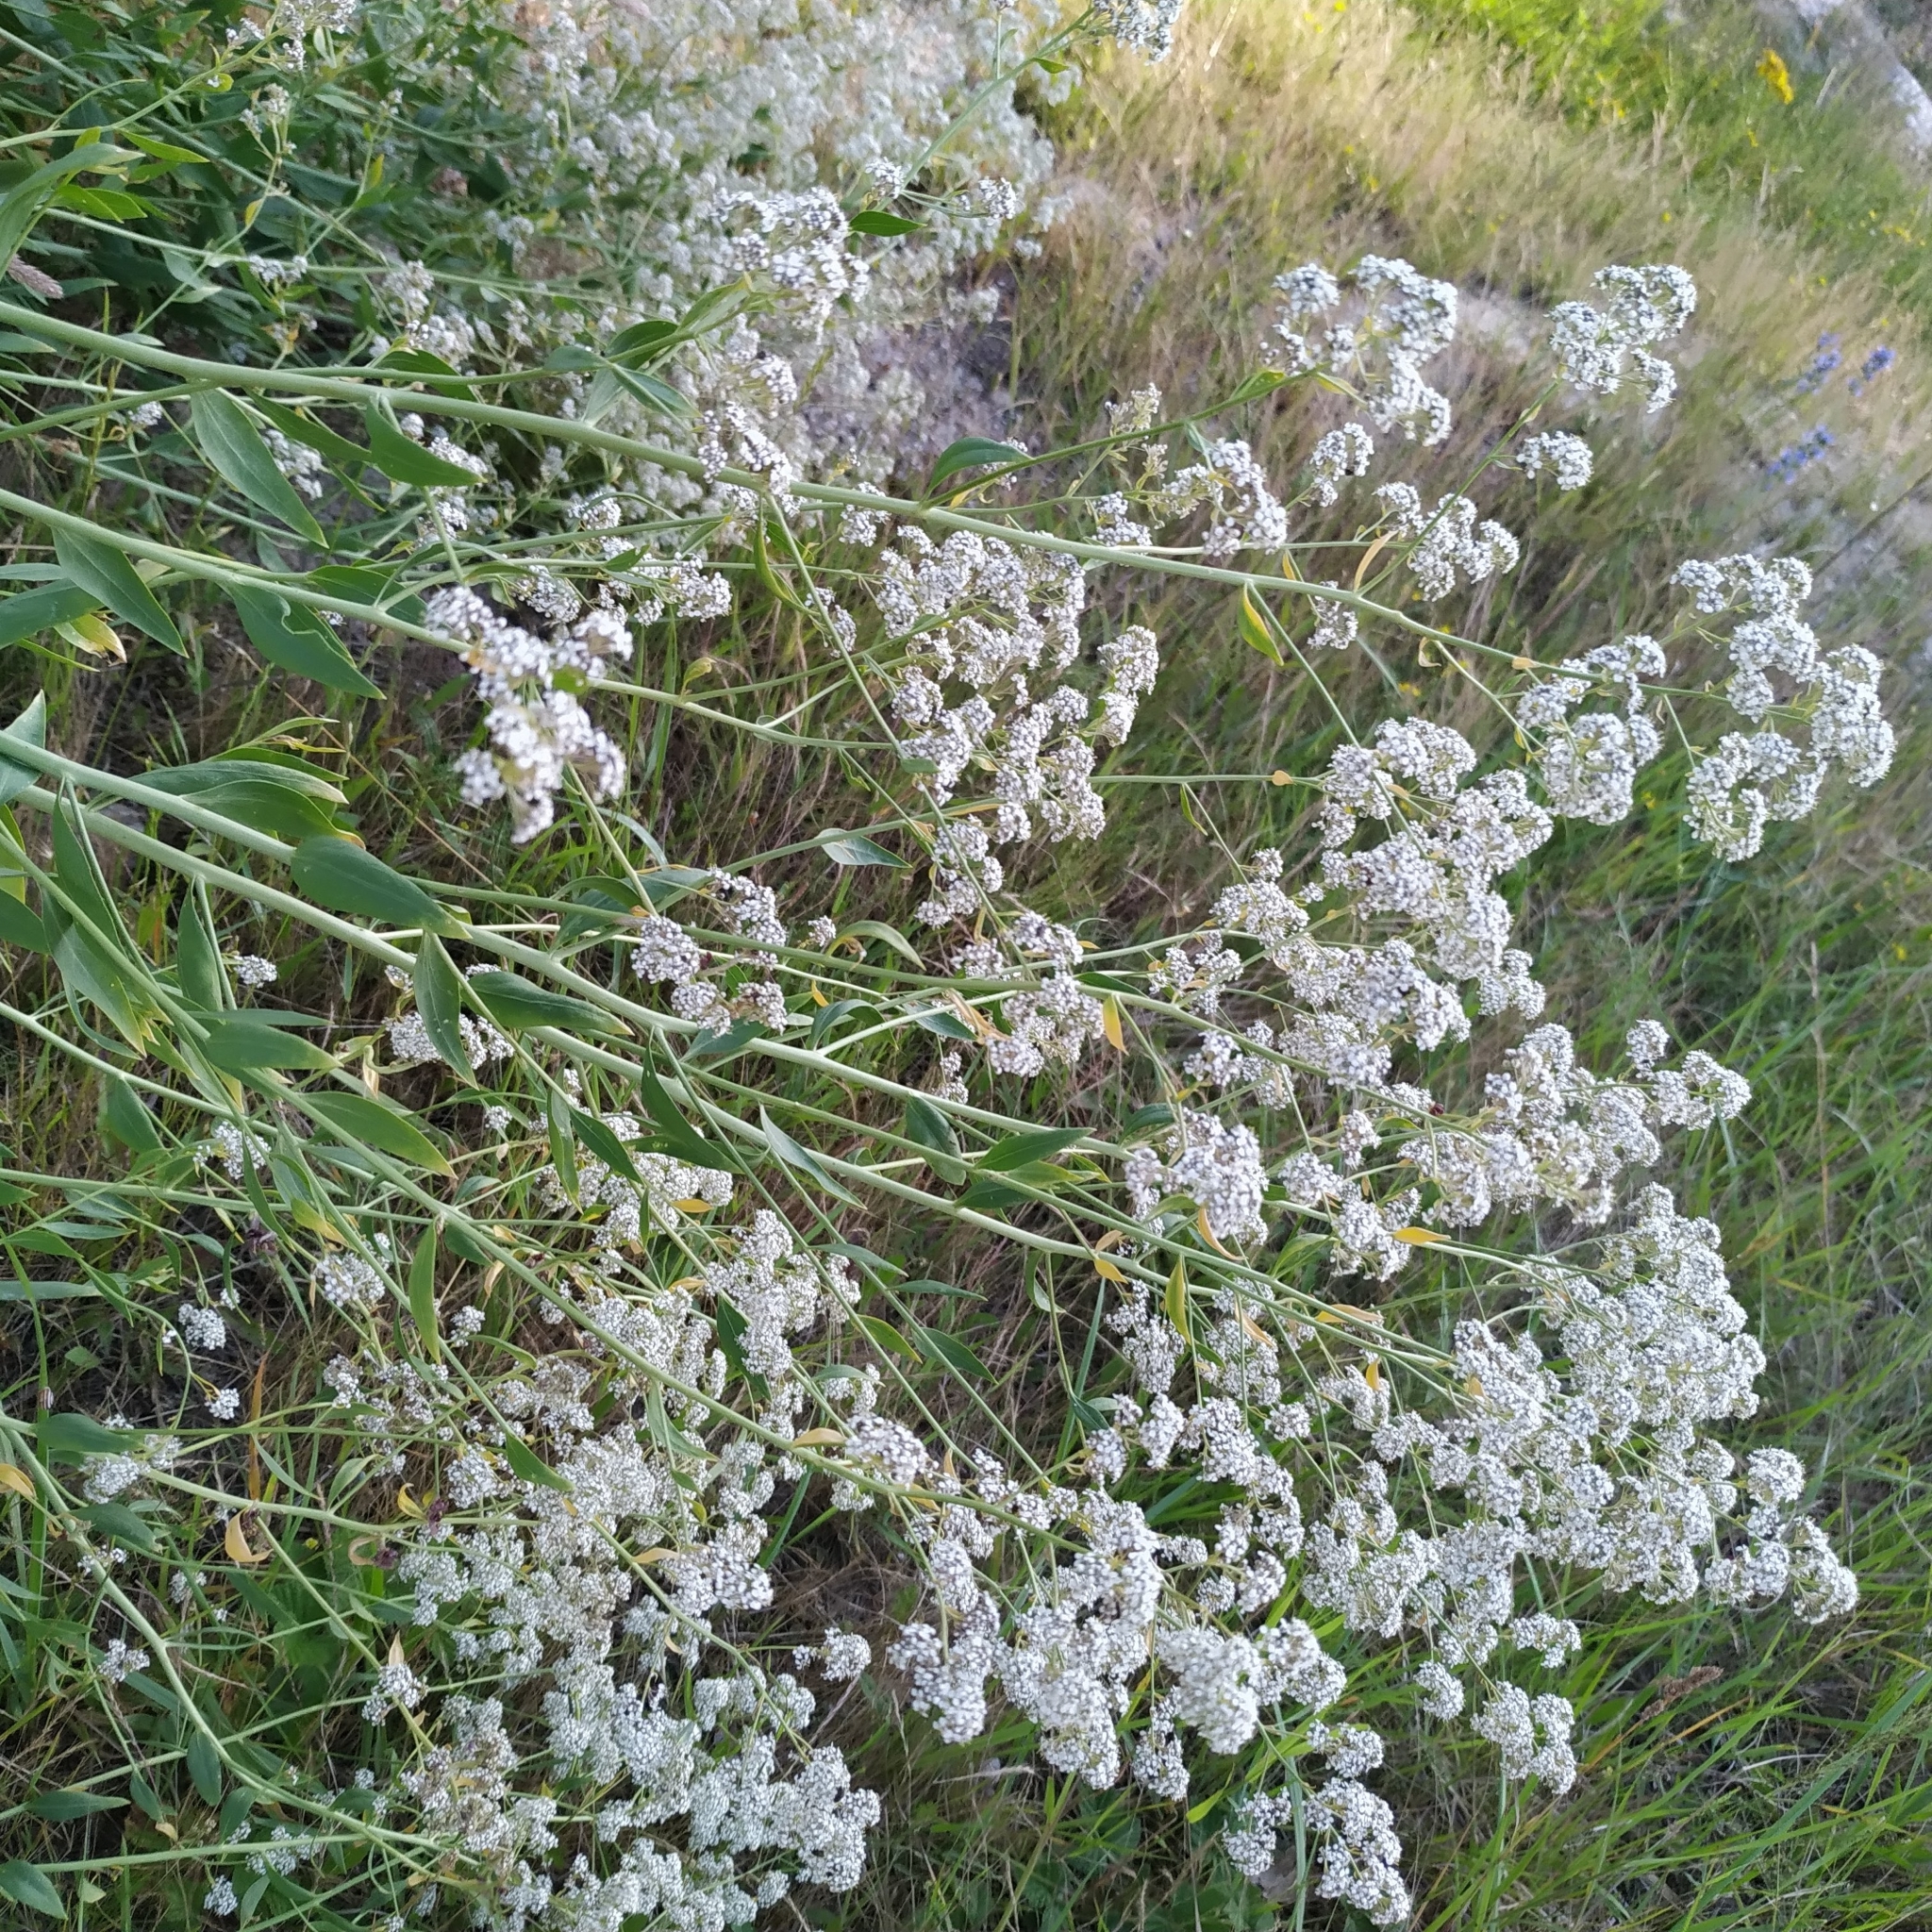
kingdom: Plantae
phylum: Tracheophyta
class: Magnoliopsida
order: Brassicales
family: Brassicaceae
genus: Lepidium
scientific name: Lepidium latifolium
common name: Dittander
